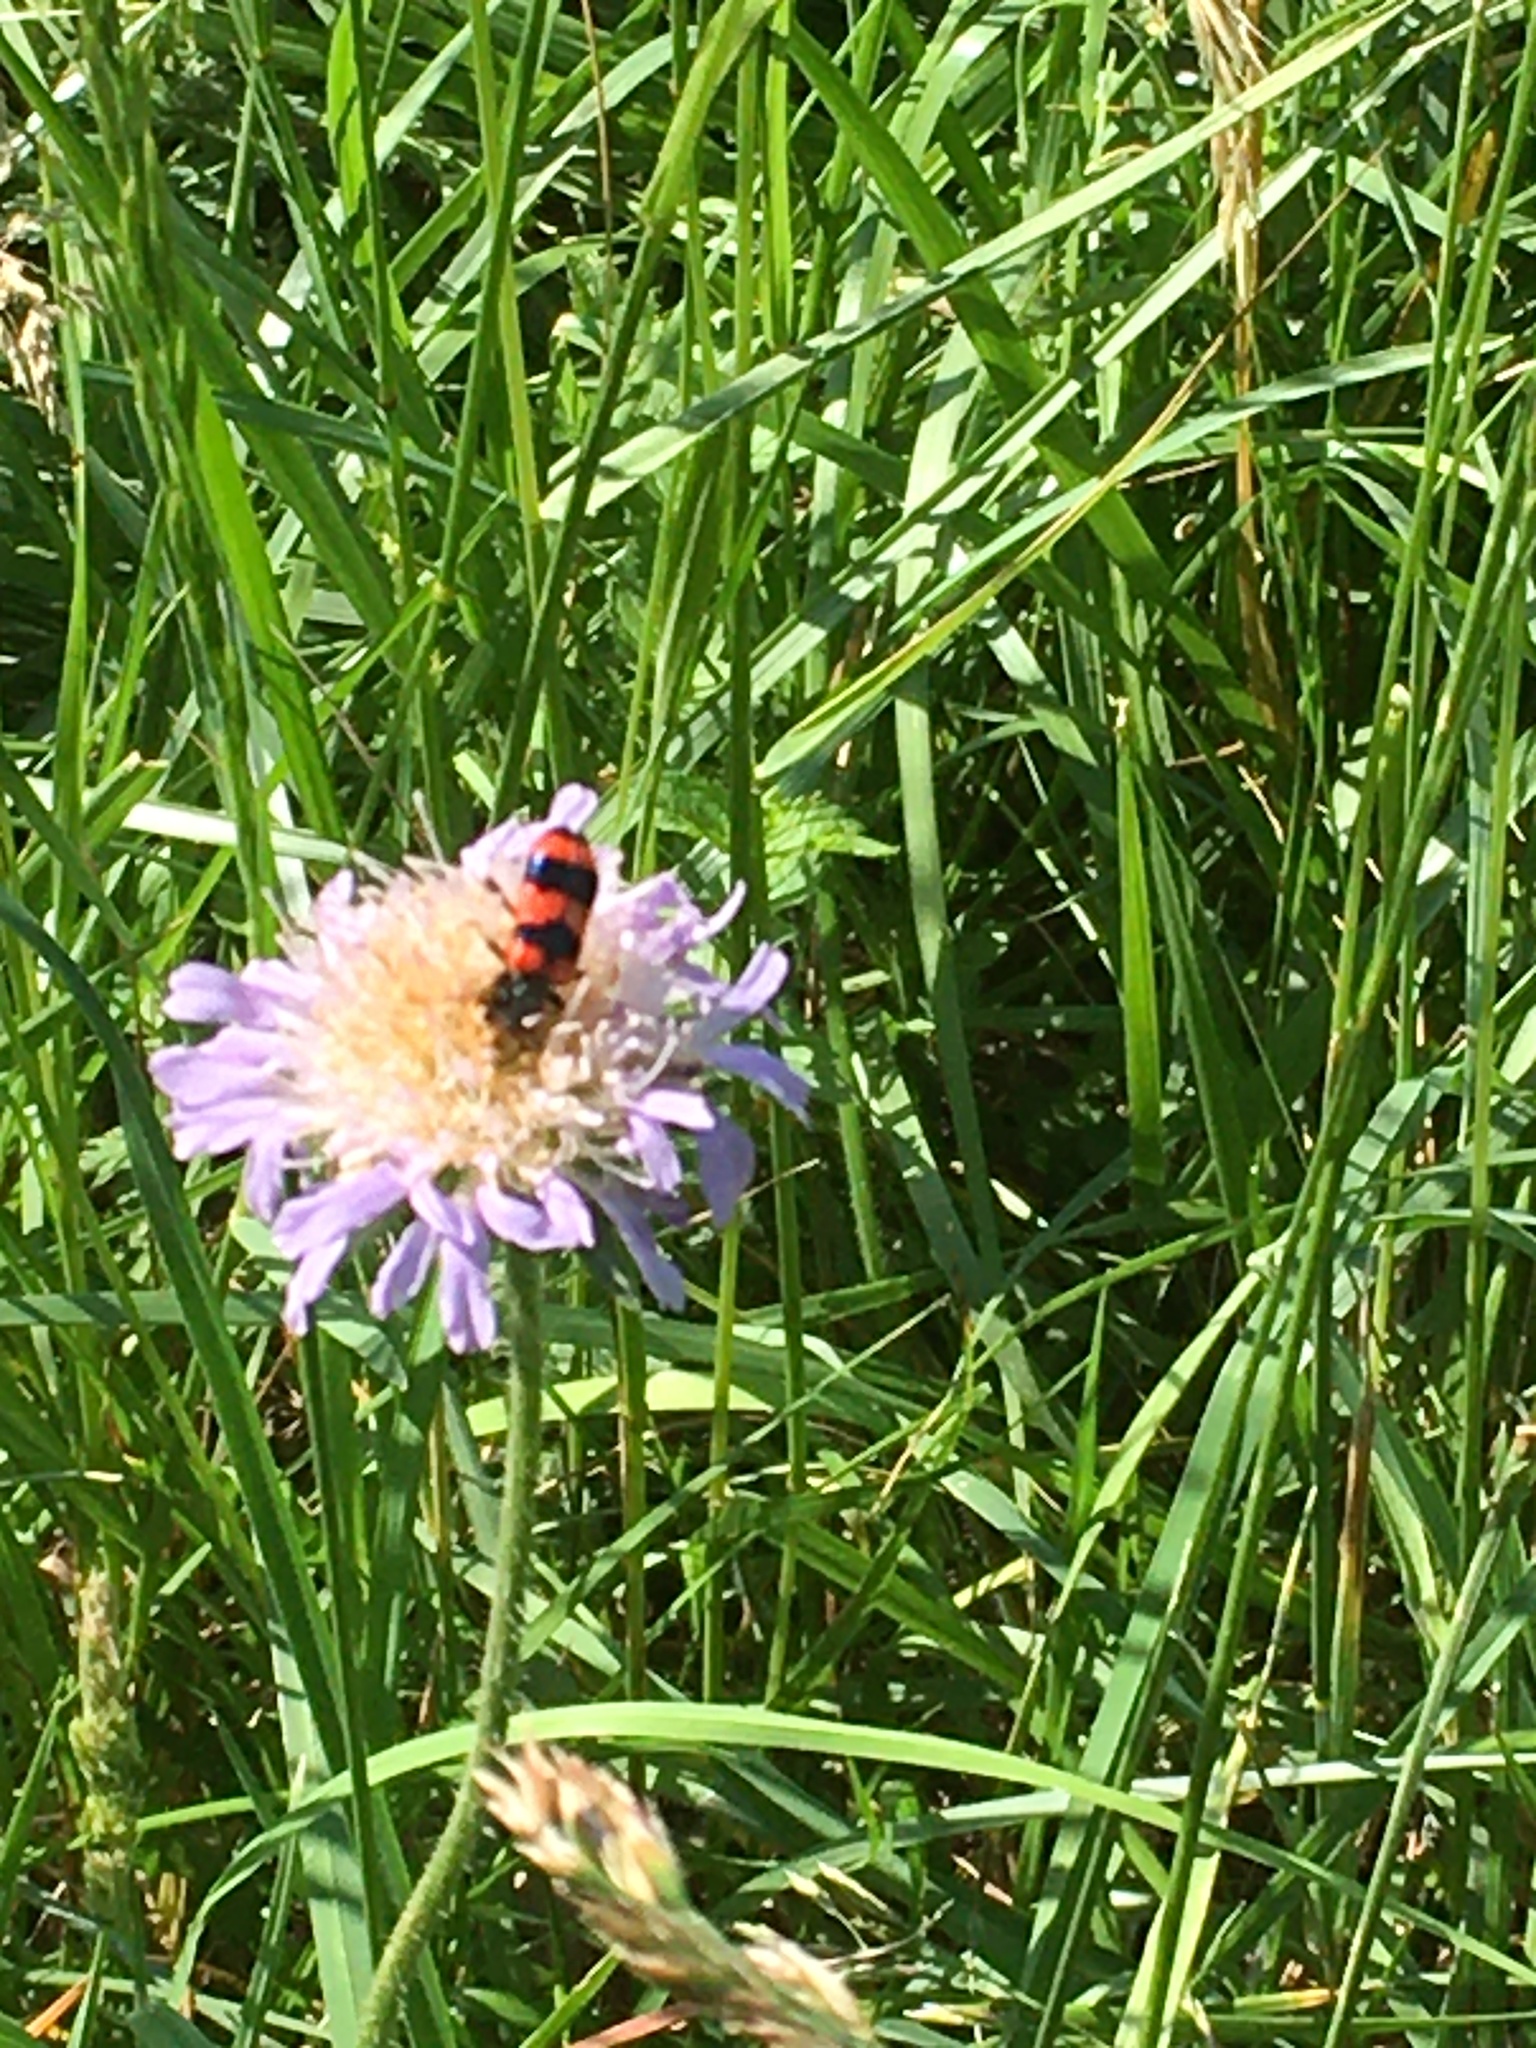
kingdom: Animalia
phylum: Arthropoda
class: Insecta
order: Coleoptera
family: Cleridae
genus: Trichodes
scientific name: Trichodes apiarius
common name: Bee-eating beetle
